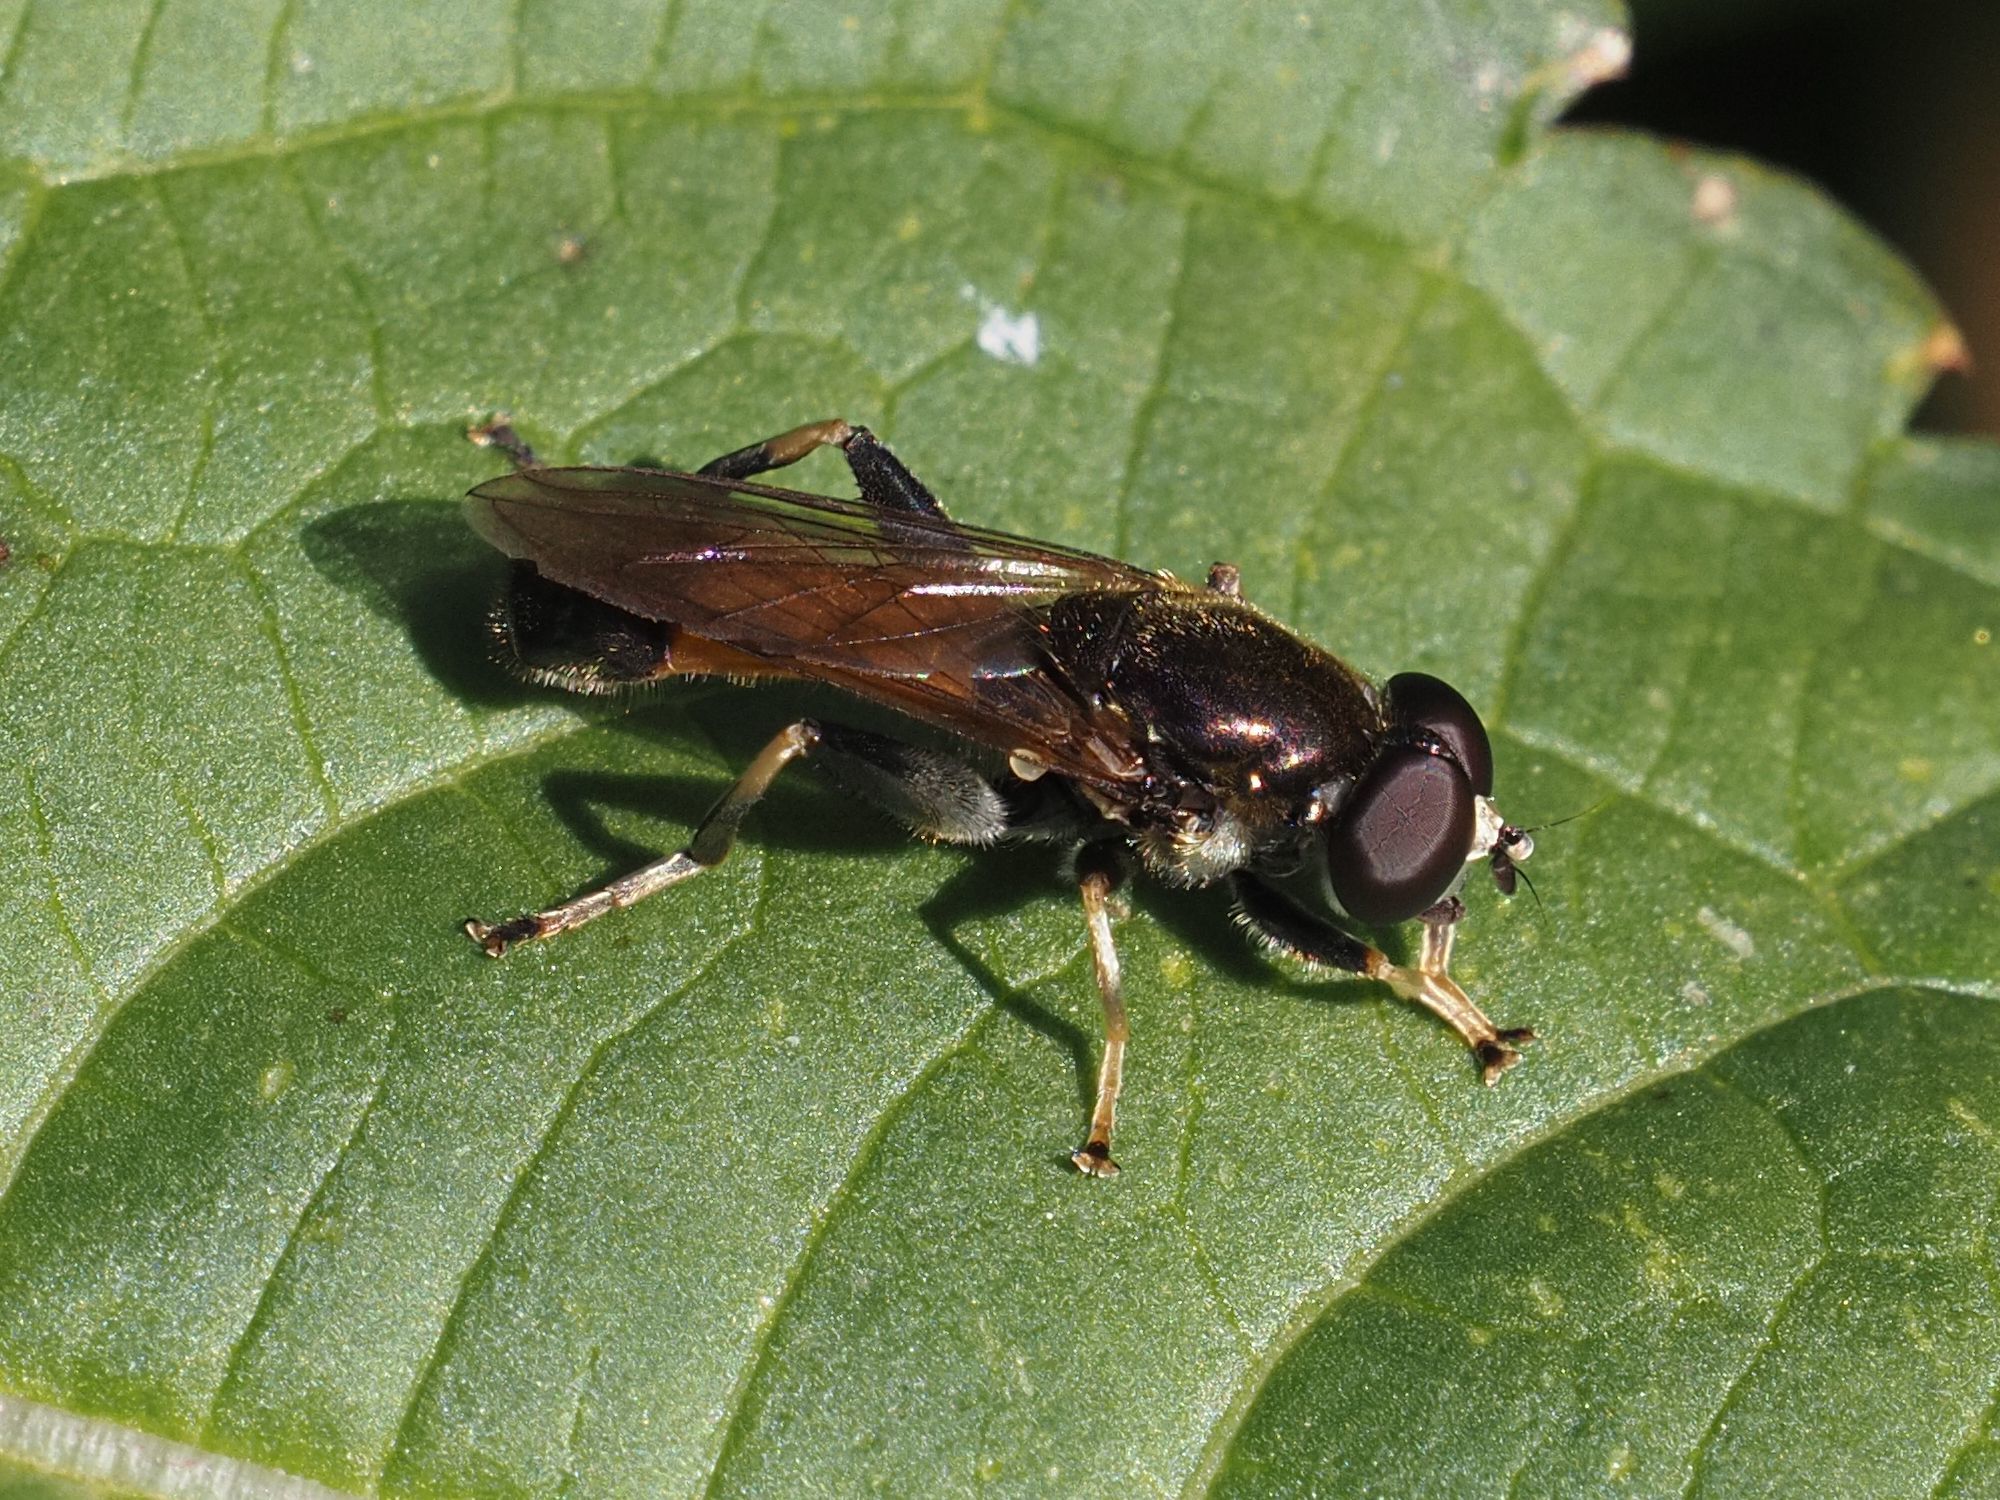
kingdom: Animalia
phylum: Arthropoda
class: Insecta
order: Diptera
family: Syrphidae
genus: Xylota
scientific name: Xylota segnis
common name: Brown-toed forest fly
